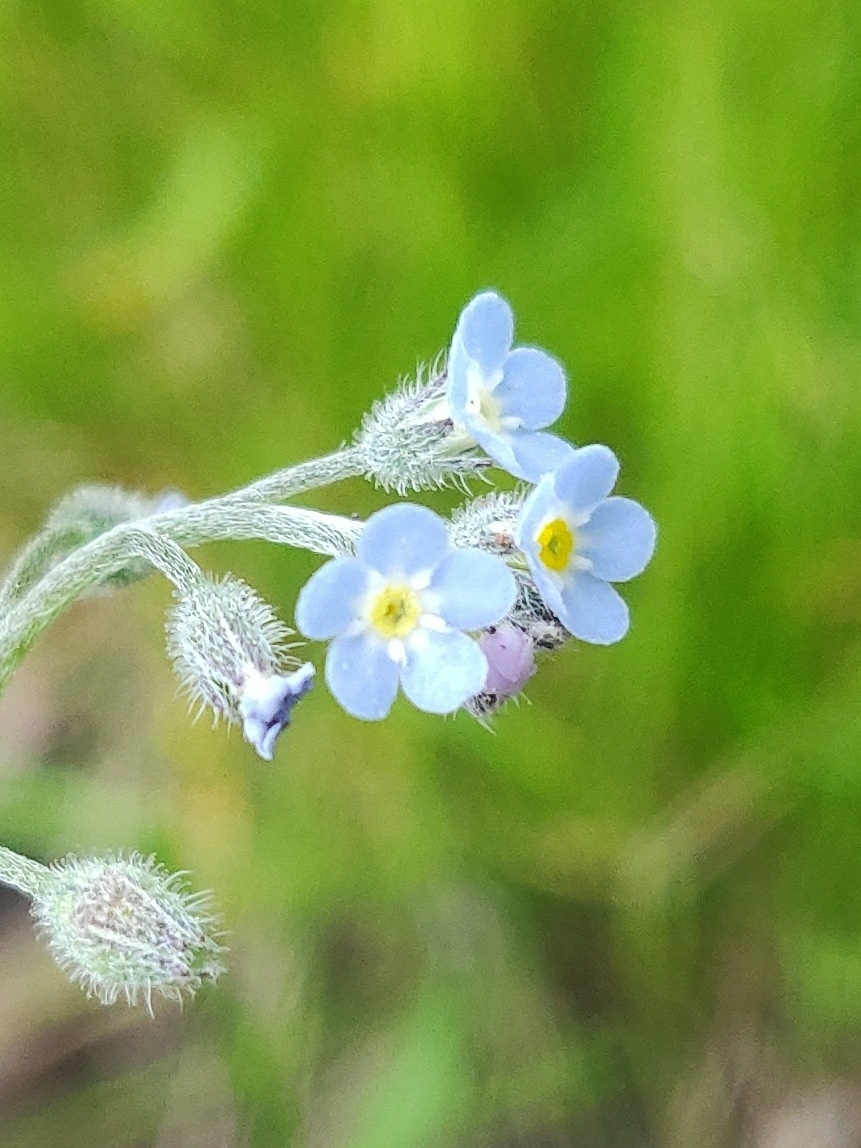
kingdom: Plantae
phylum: Tracheophyta
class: Magnoliopsida
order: Boraginales
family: Boraginaceae
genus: Myosotis
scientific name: Myosotis arvensis
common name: Field forget-me-not
